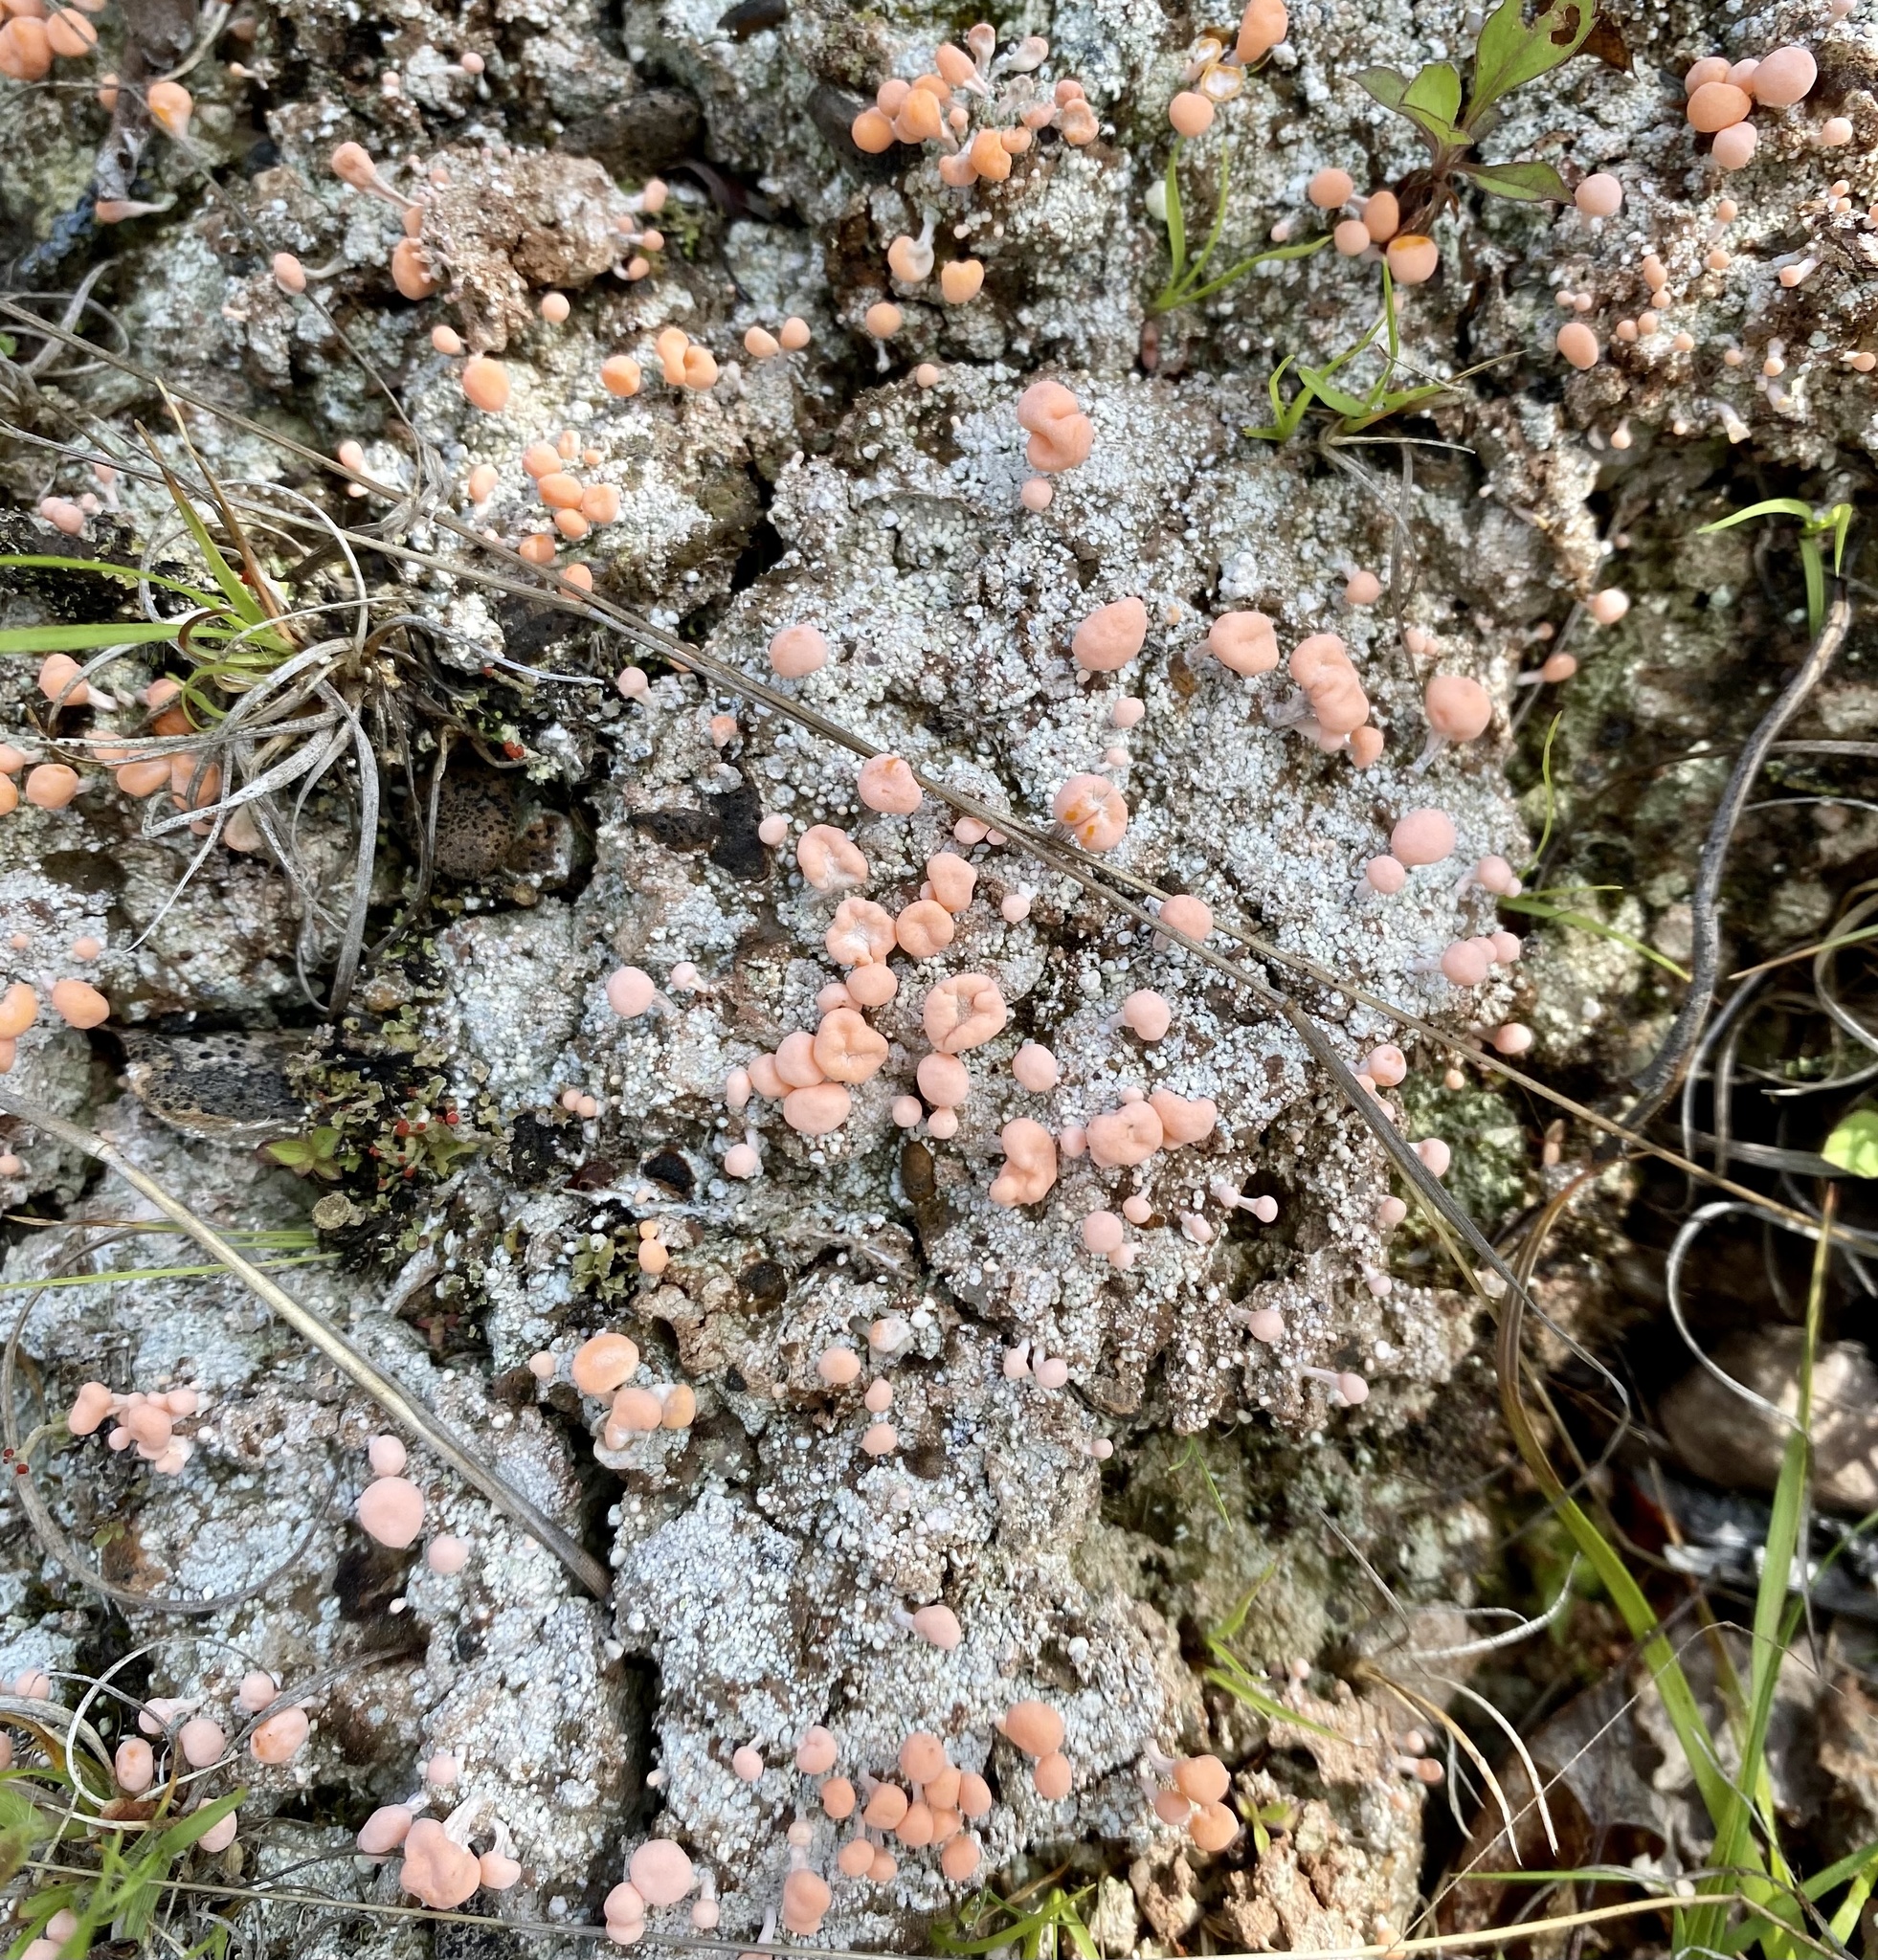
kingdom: Fungi
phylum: Ascomycota
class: Lecanoromycetes
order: Pertusariales
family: Icmadophilaceae
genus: Dibaeis
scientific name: Dibaeis baeomyces
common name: Pink earth lichen
